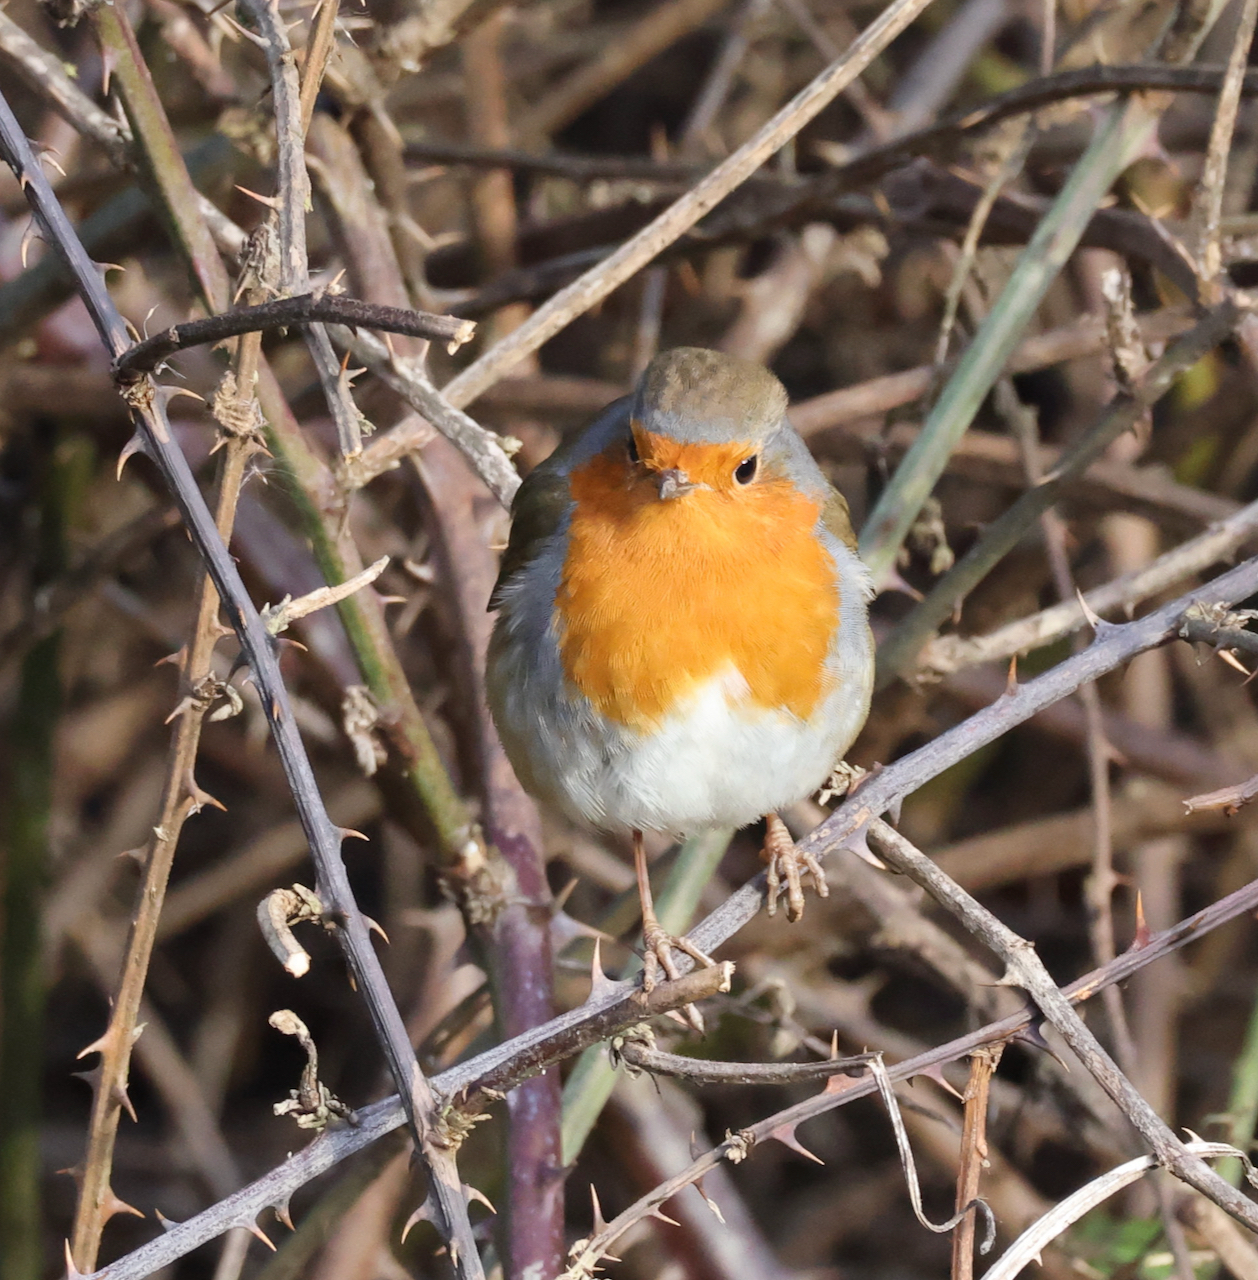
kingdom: Animalia
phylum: Chordata
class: Aves
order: Passeriformes
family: Muscicapidae
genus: Erithacus
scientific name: Erithacus rubecula
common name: European robin
